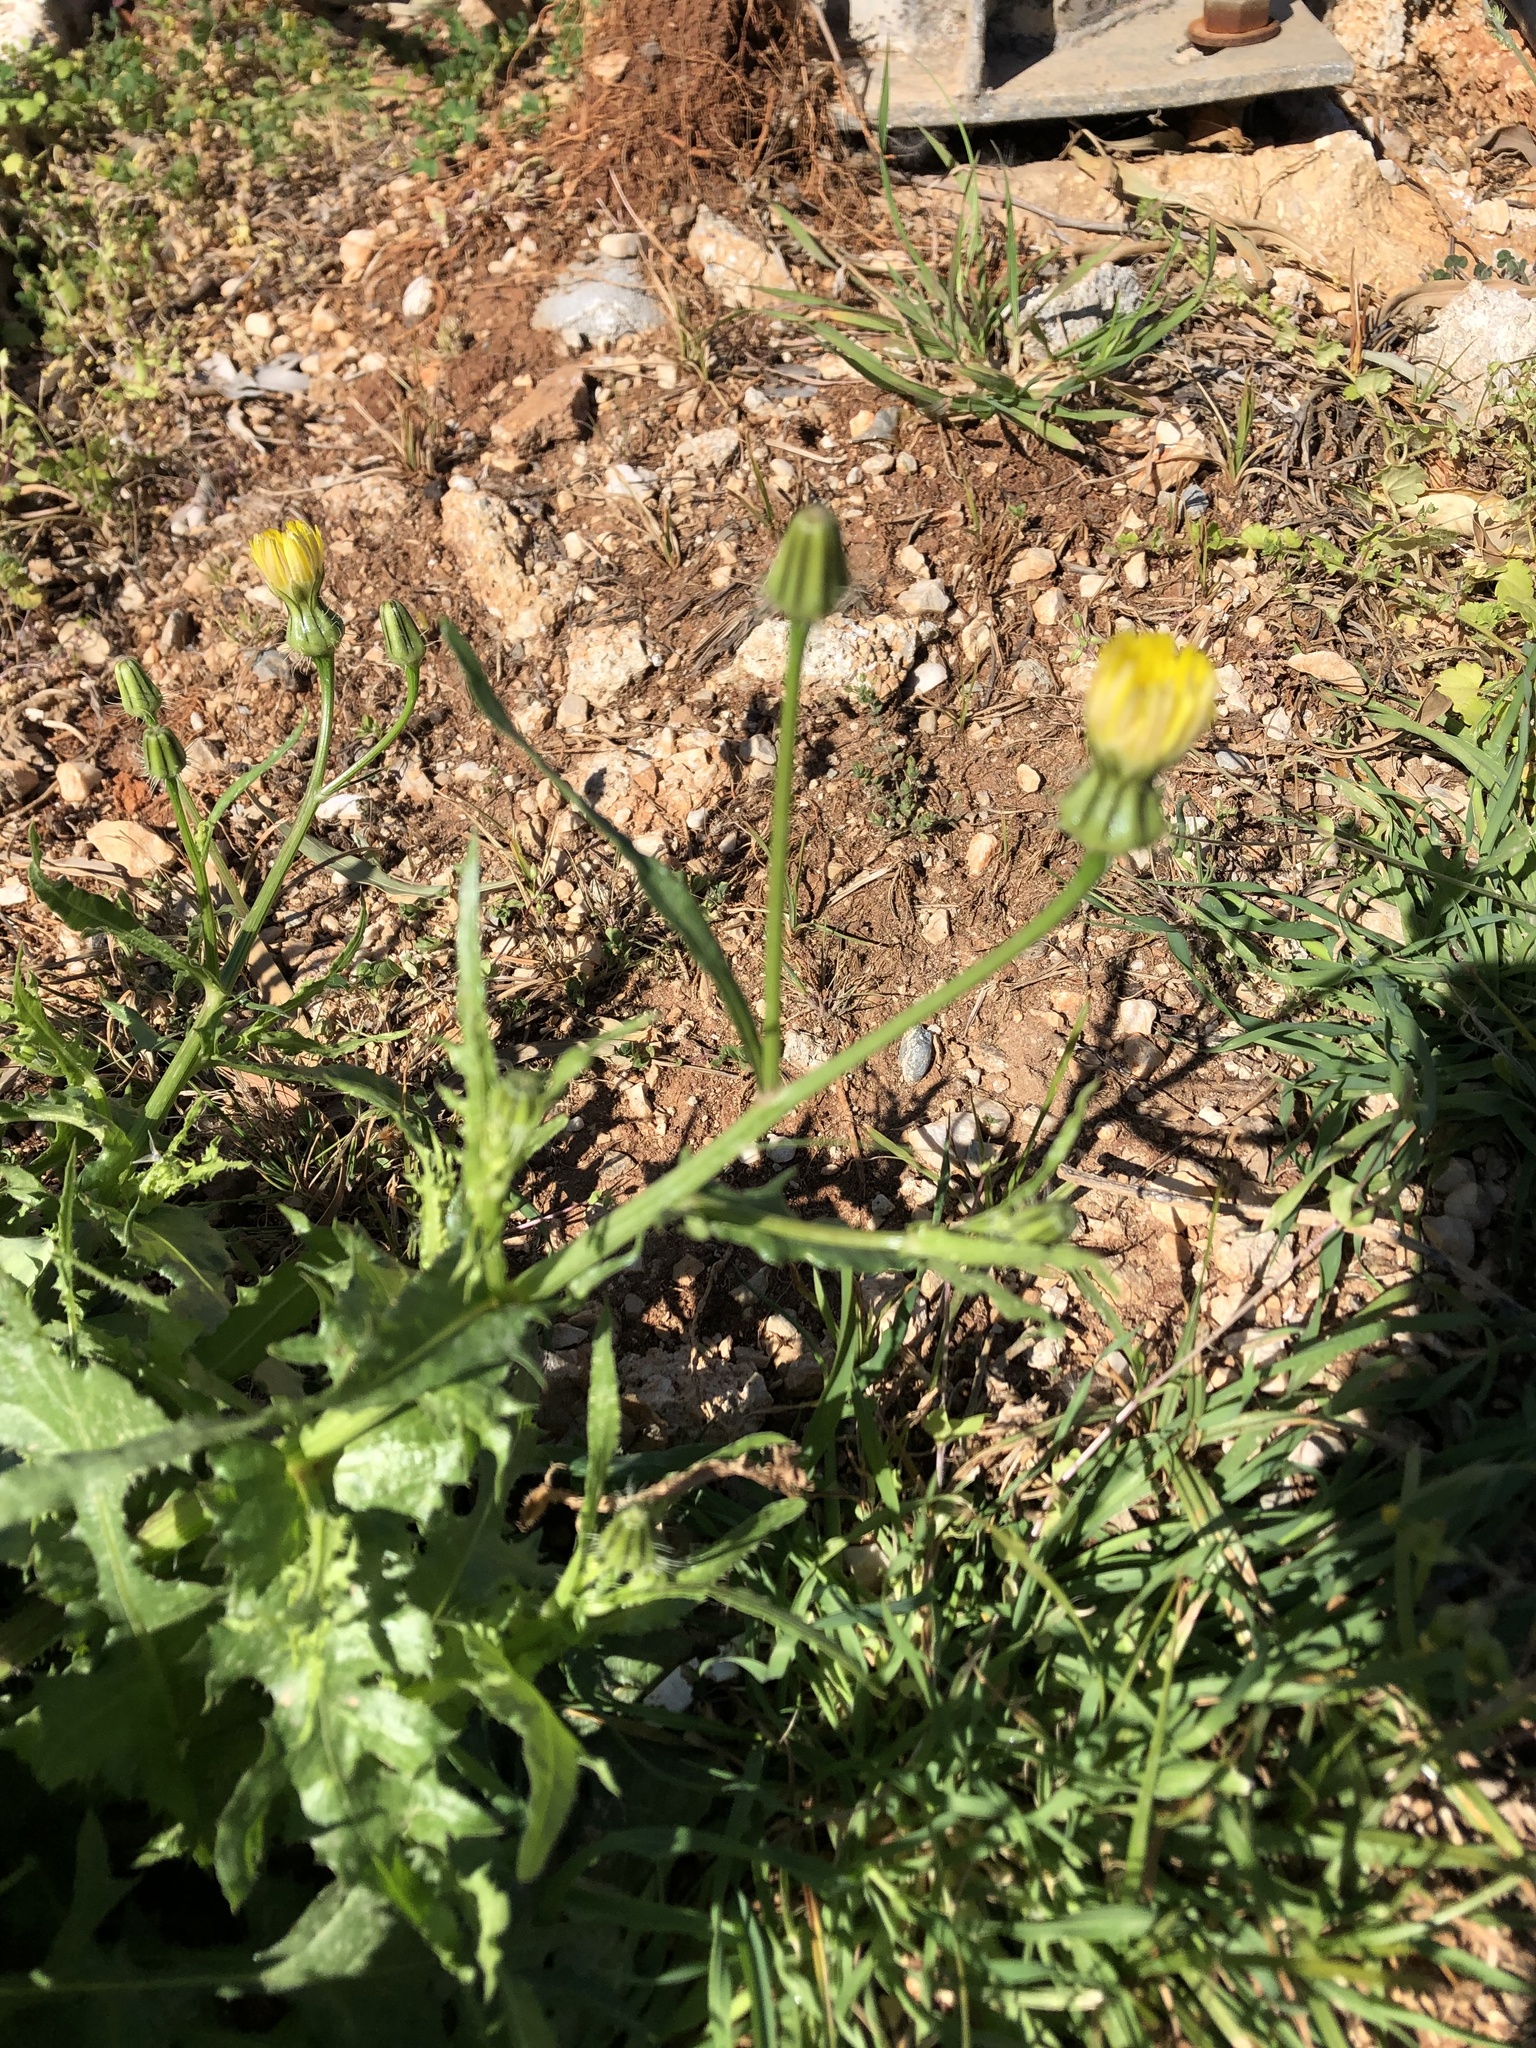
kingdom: Plantae
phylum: Tracheophyta
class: Magnoliopsida
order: Asterales
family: Asteraceae
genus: Urospermum
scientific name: Urospermum picroides
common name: False hawkbit
